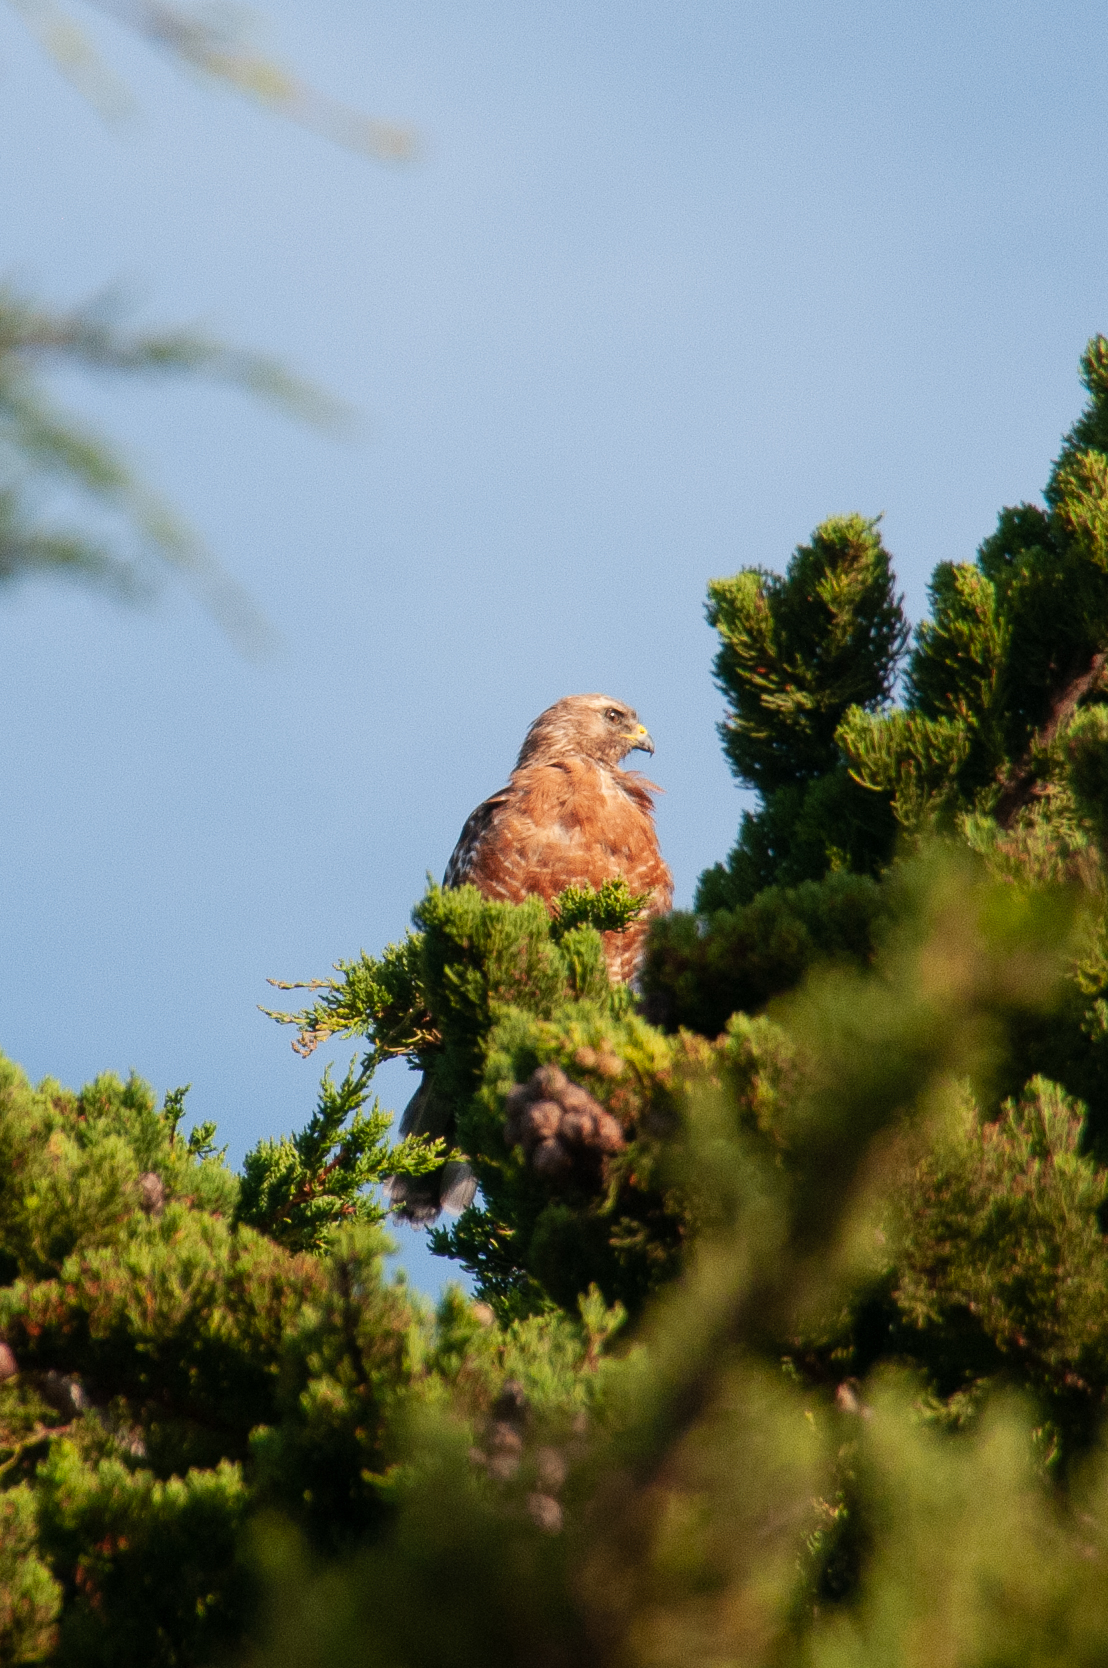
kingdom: Animalia
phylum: Chordata
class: Aves
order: Accipitriformes
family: Accipitridae
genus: Buteo
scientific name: Buteo lineatus
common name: Red-shouldered hawk
